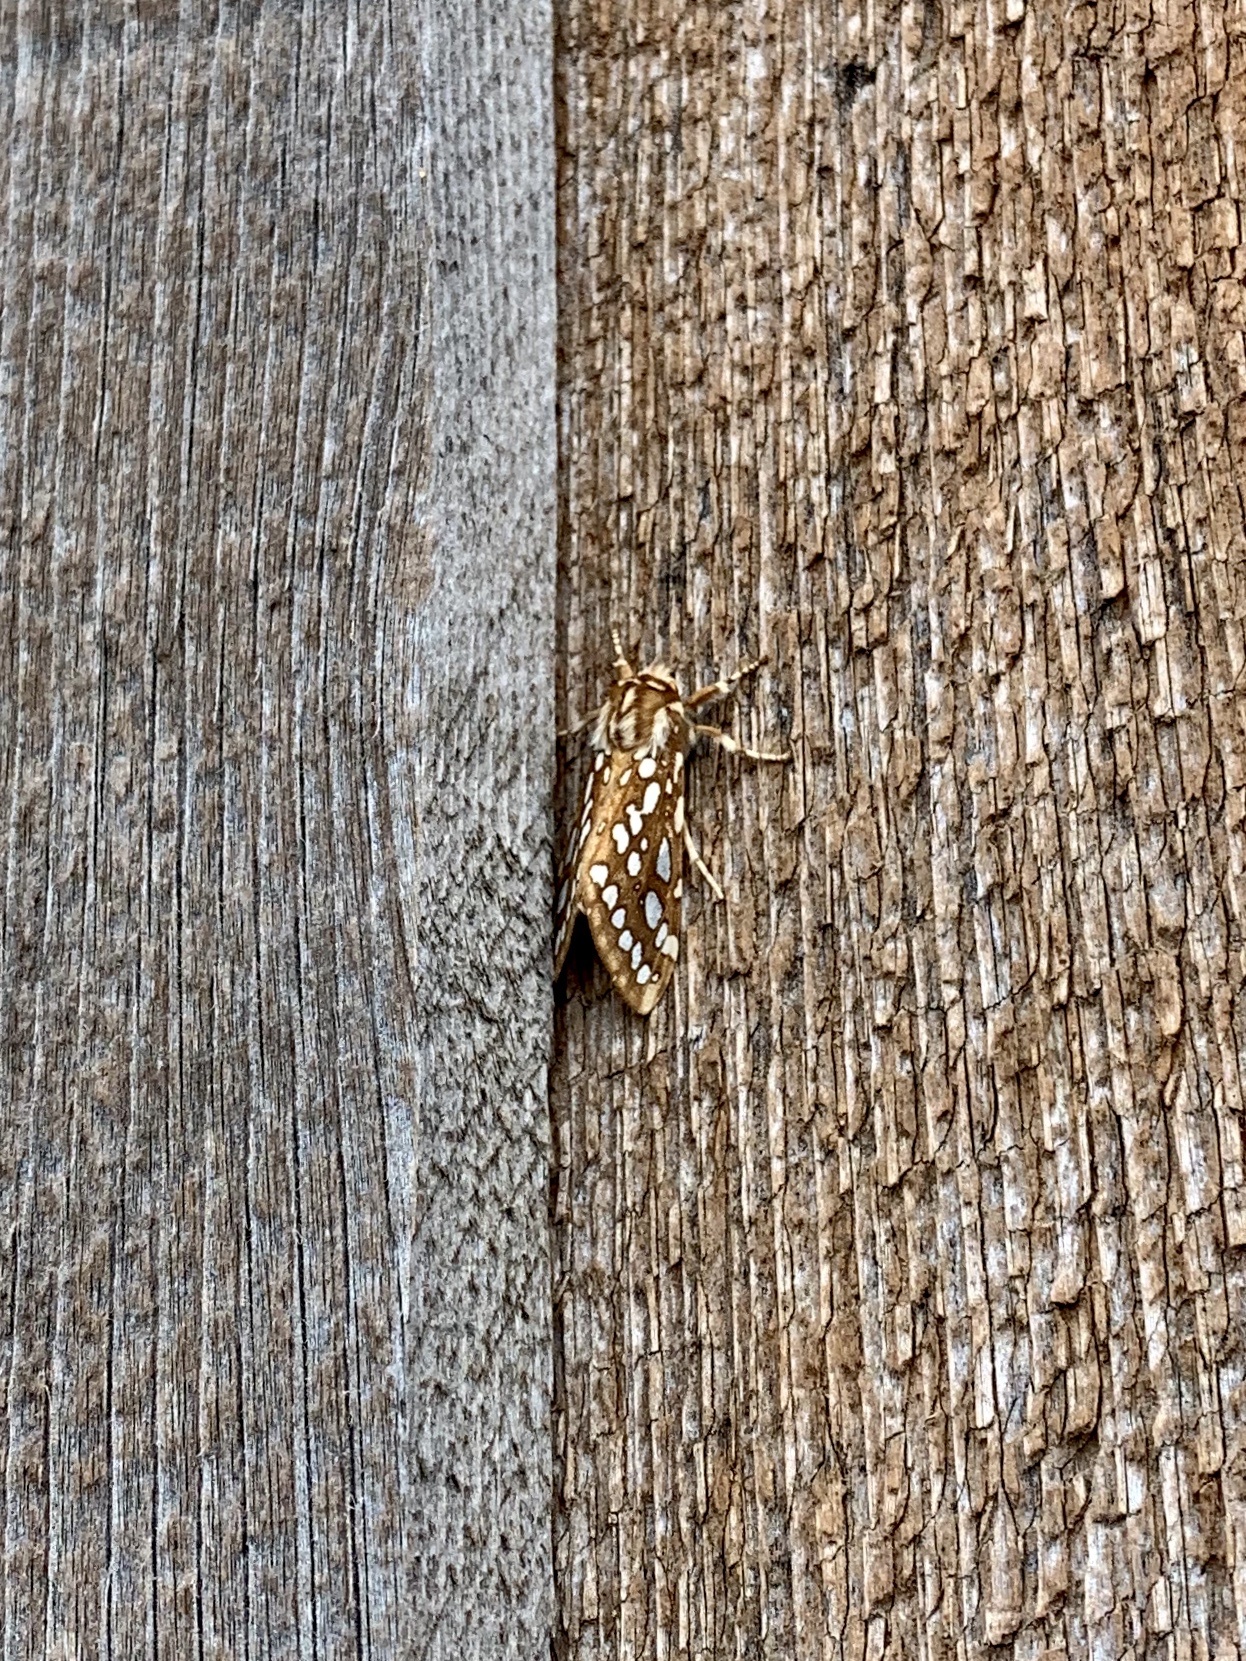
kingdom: Animalia
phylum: Arthropoda
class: Insecta
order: Lepidoptera
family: Erebidae
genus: Lophocampa
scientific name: Lophocampa argentata
